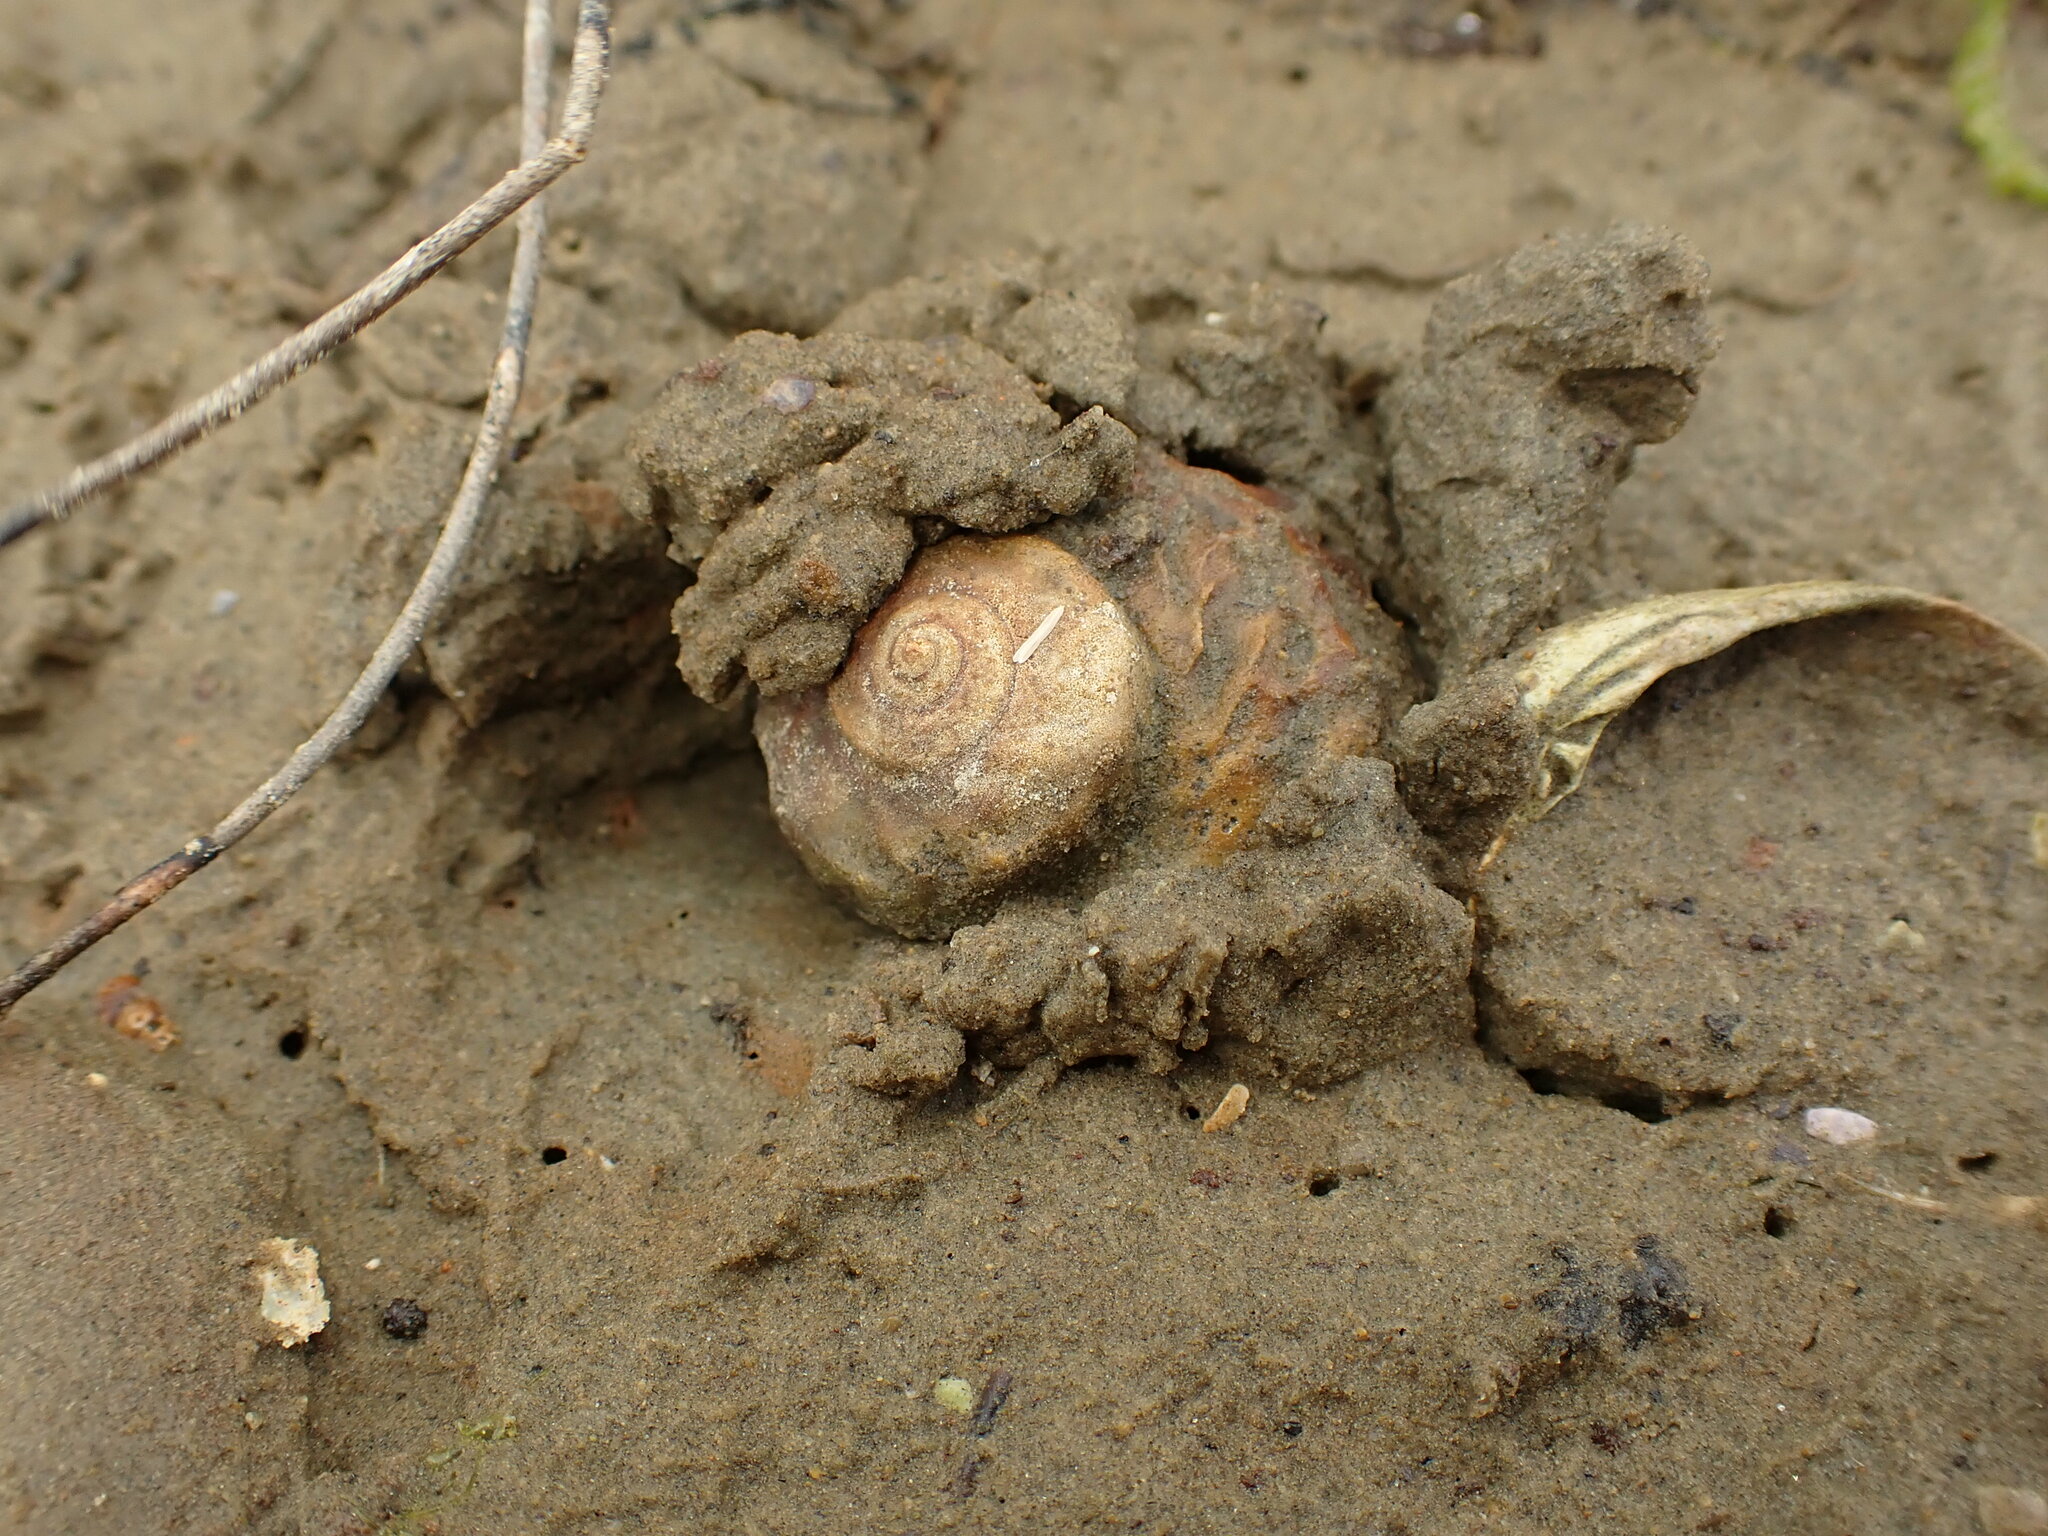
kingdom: Animalia
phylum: Mollusca
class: Gastropoda
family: Amphibolidae
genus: Amphibola
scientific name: Amphibola crenata
